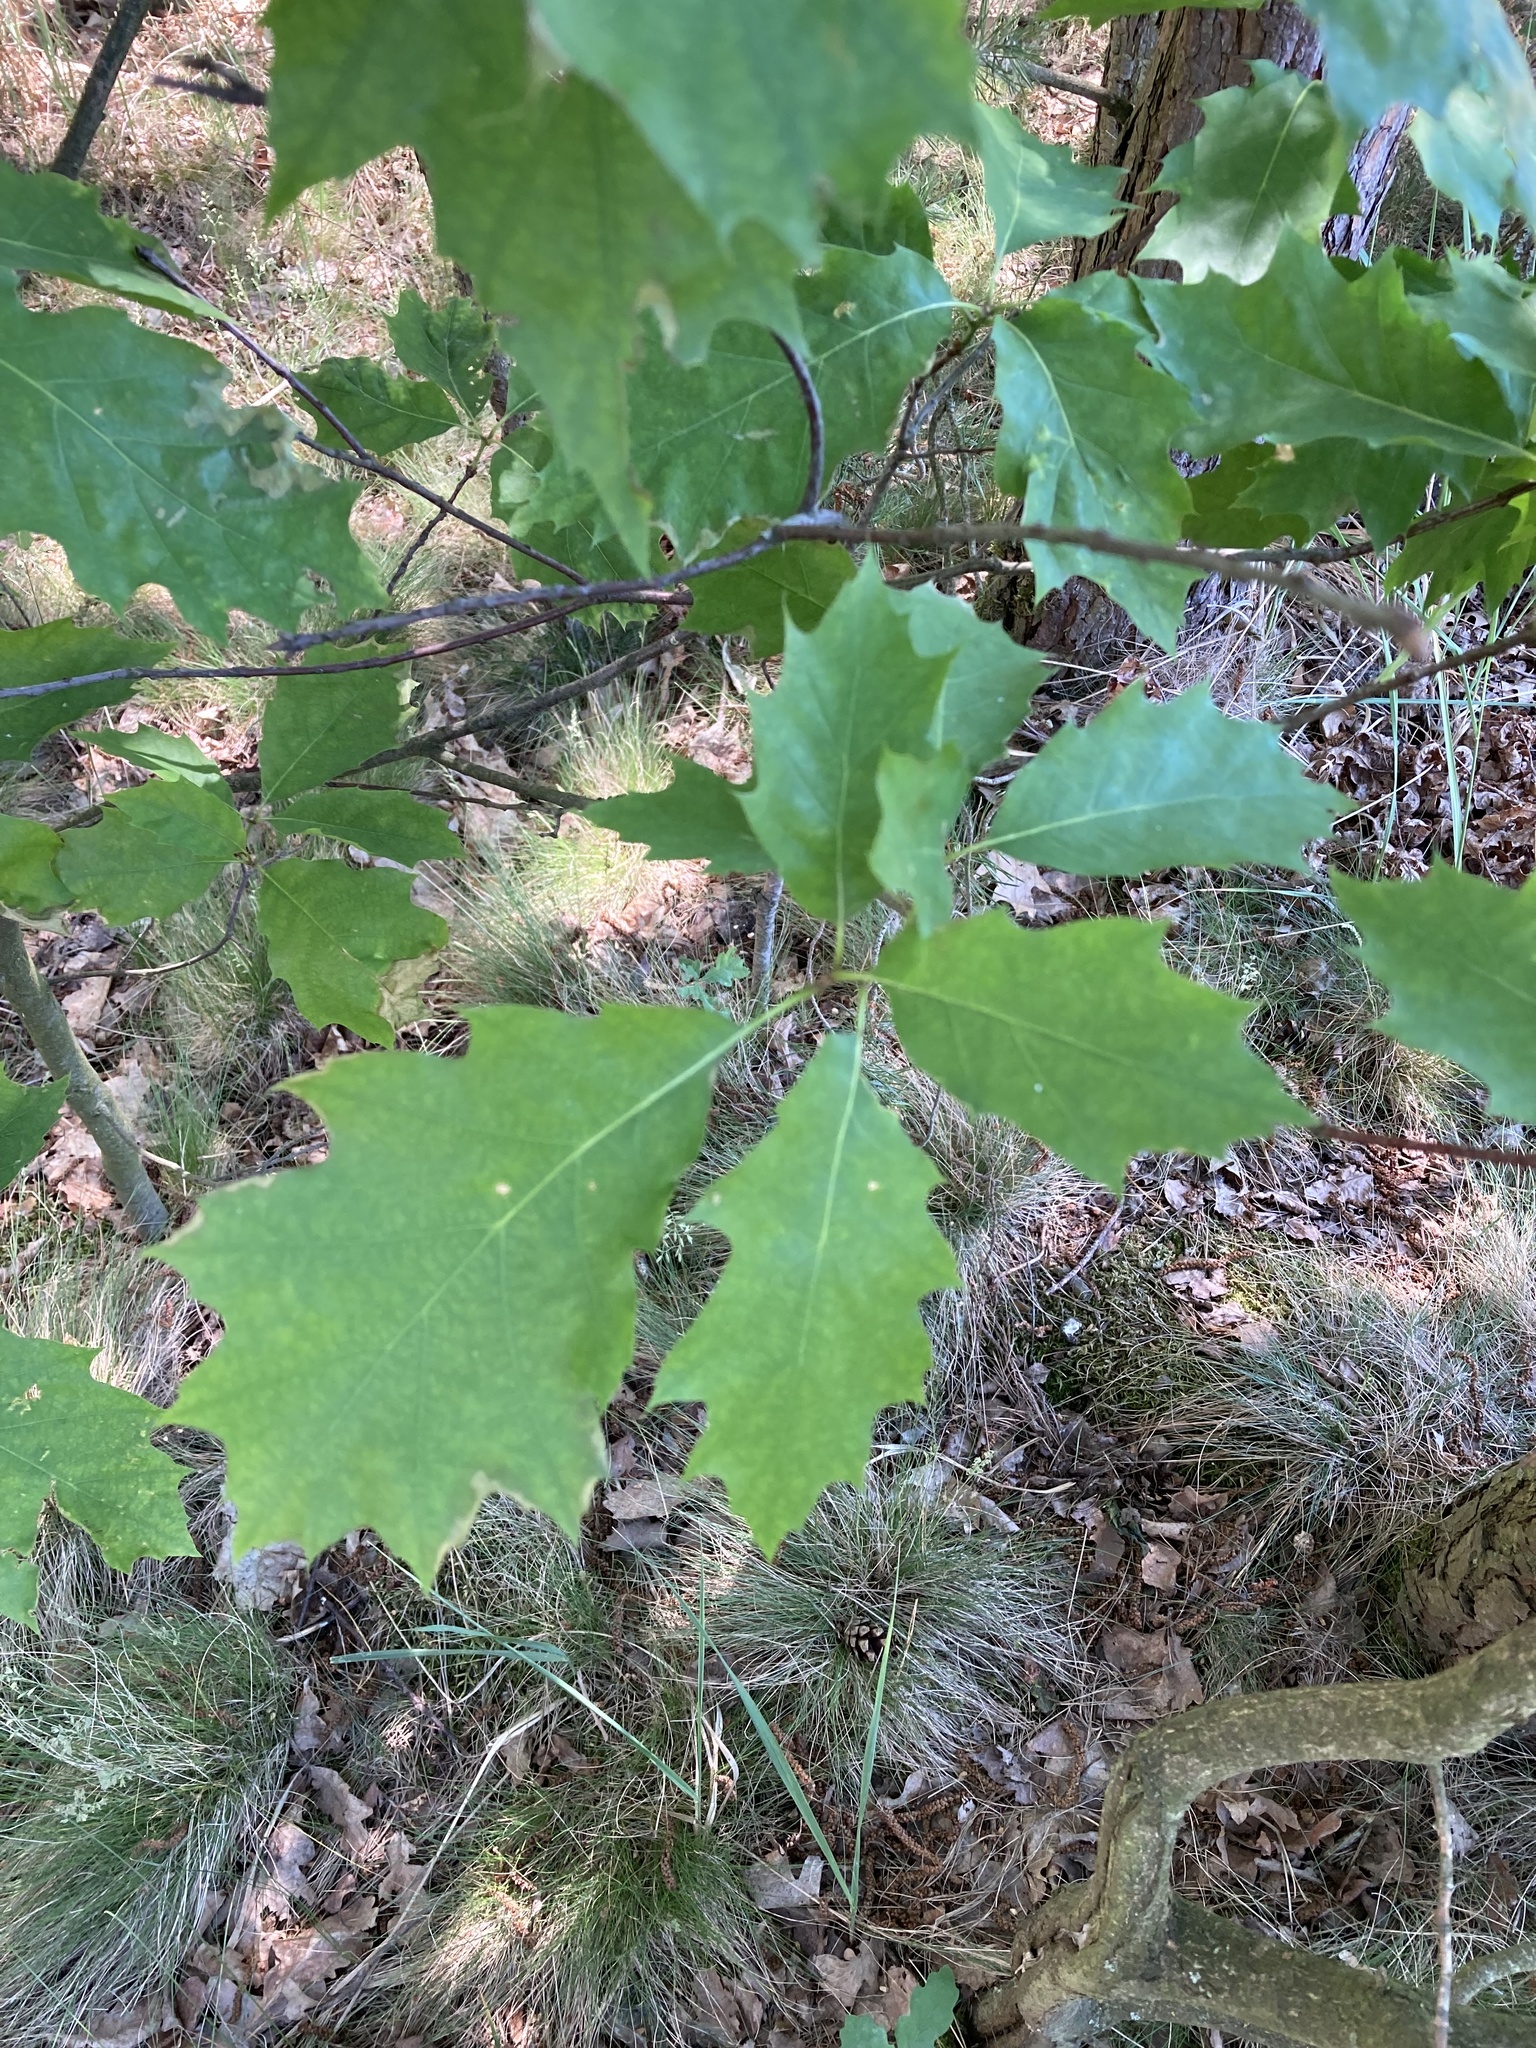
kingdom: Plantae
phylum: Tracheophyta
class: Magnoliopsida
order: Fagales
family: Fagaceae
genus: Quercus
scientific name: Quercus rubra
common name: Red oak
